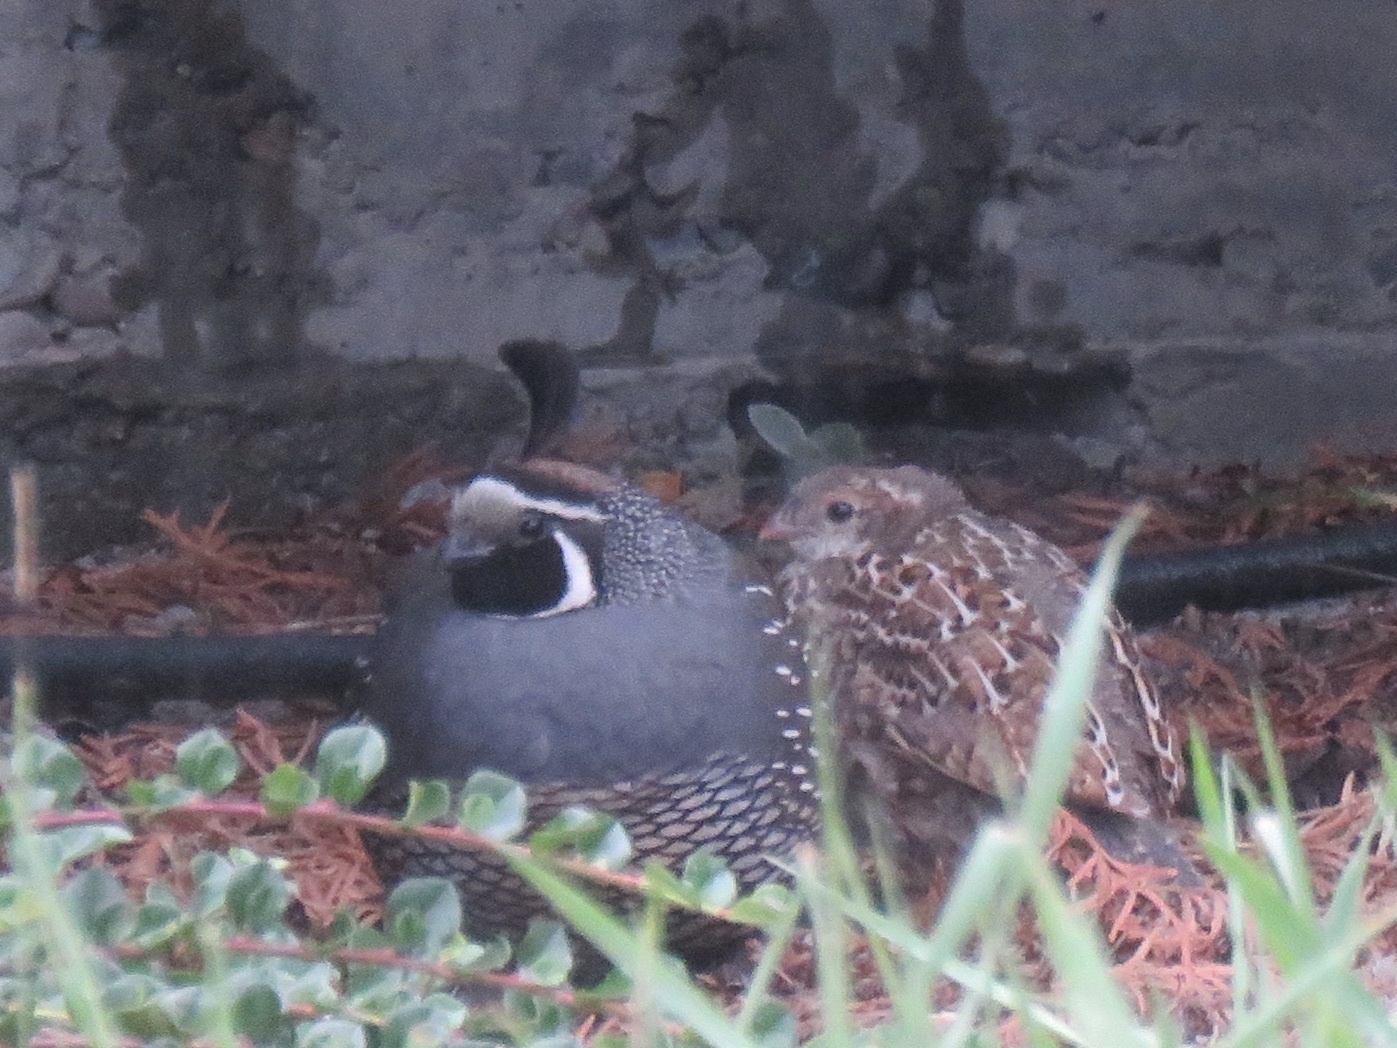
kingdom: Animalia
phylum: Chordata
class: Aves
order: Galliformes
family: Odontophoridae
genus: Callipepla
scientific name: Callipepla californica
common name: California quail
